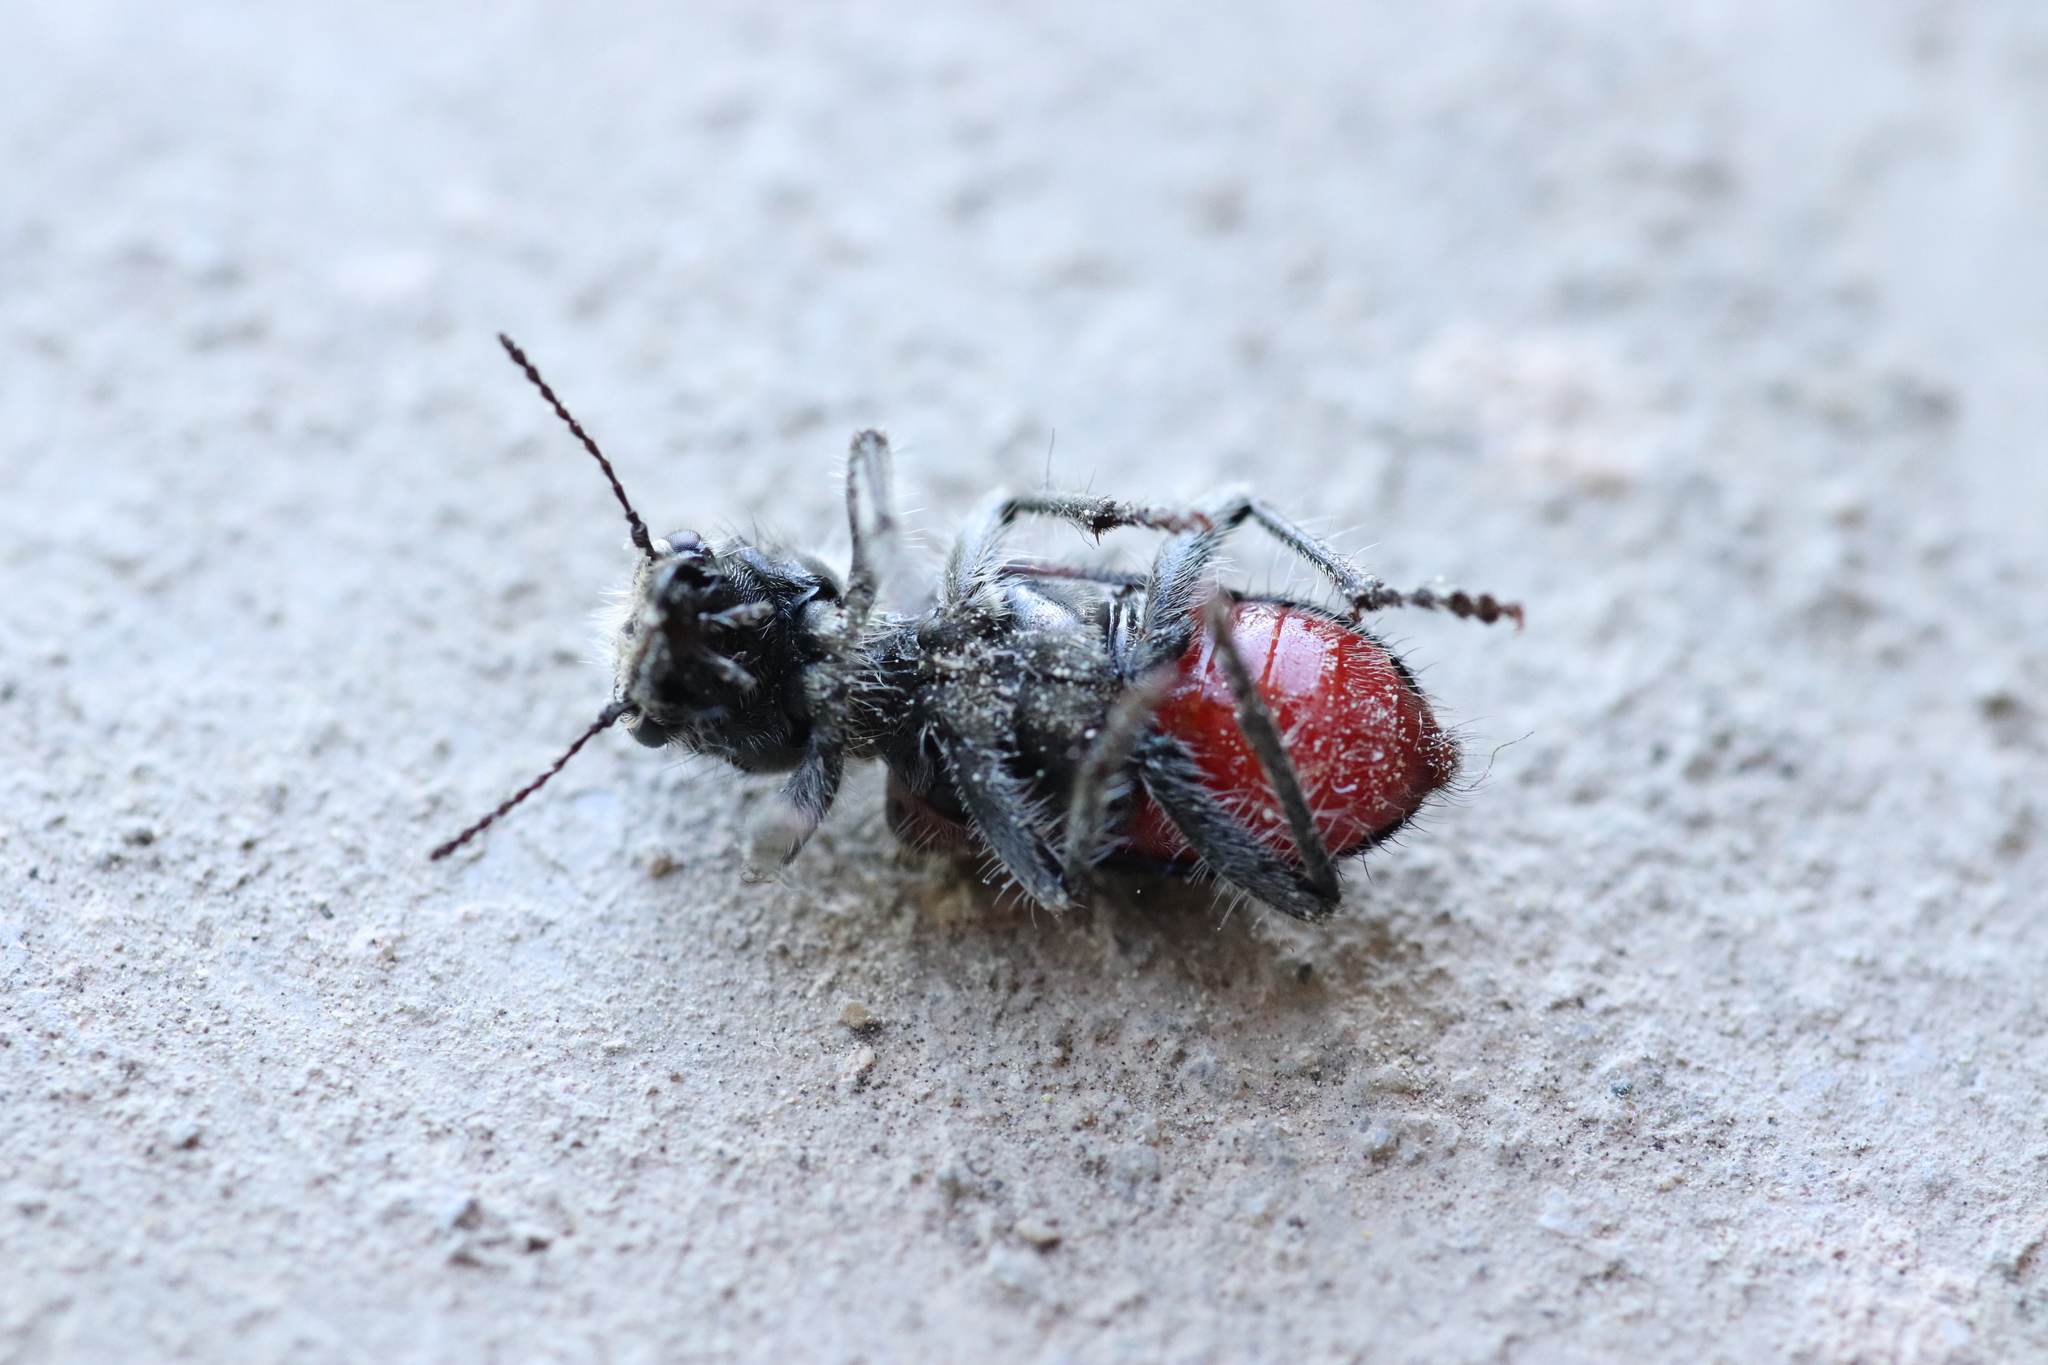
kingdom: Animalia
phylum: Arthropoda
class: Insecta
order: Coleoptera
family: Cleridae
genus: Clerus
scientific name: Clerus mutillarius
